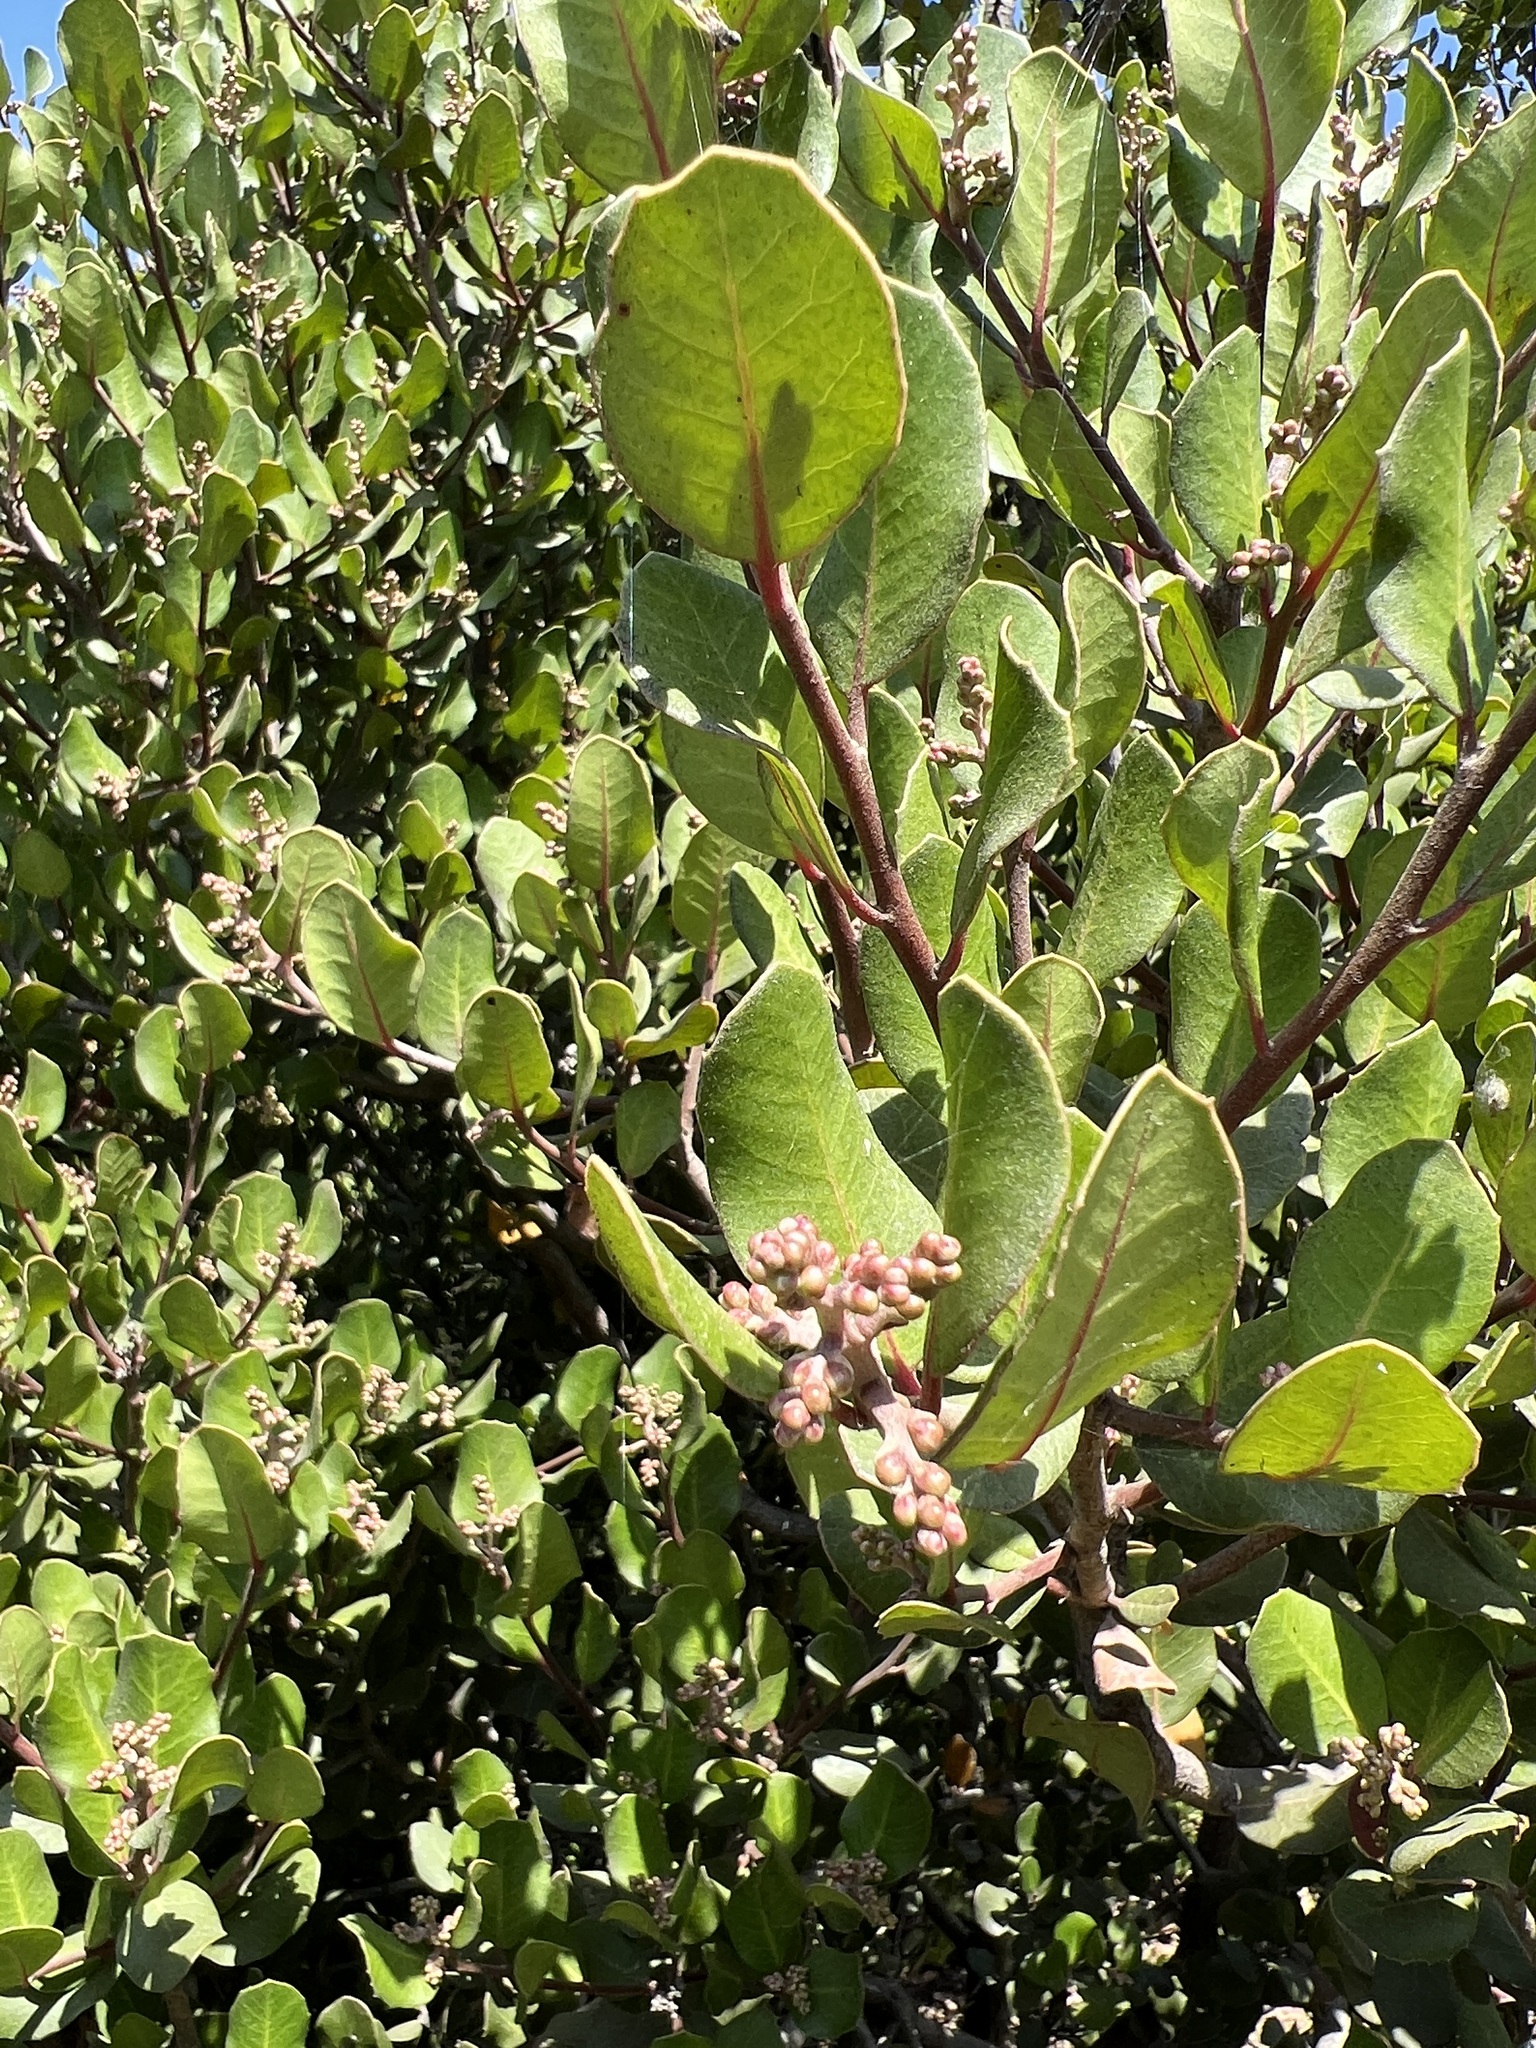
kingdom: Plantae
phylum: Tracheophyta
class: Magnoliopsida
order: Sapindales
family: Anacardiaceae
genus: Rhus
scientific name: Rhus integrifolia
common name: Lemonade sumac
